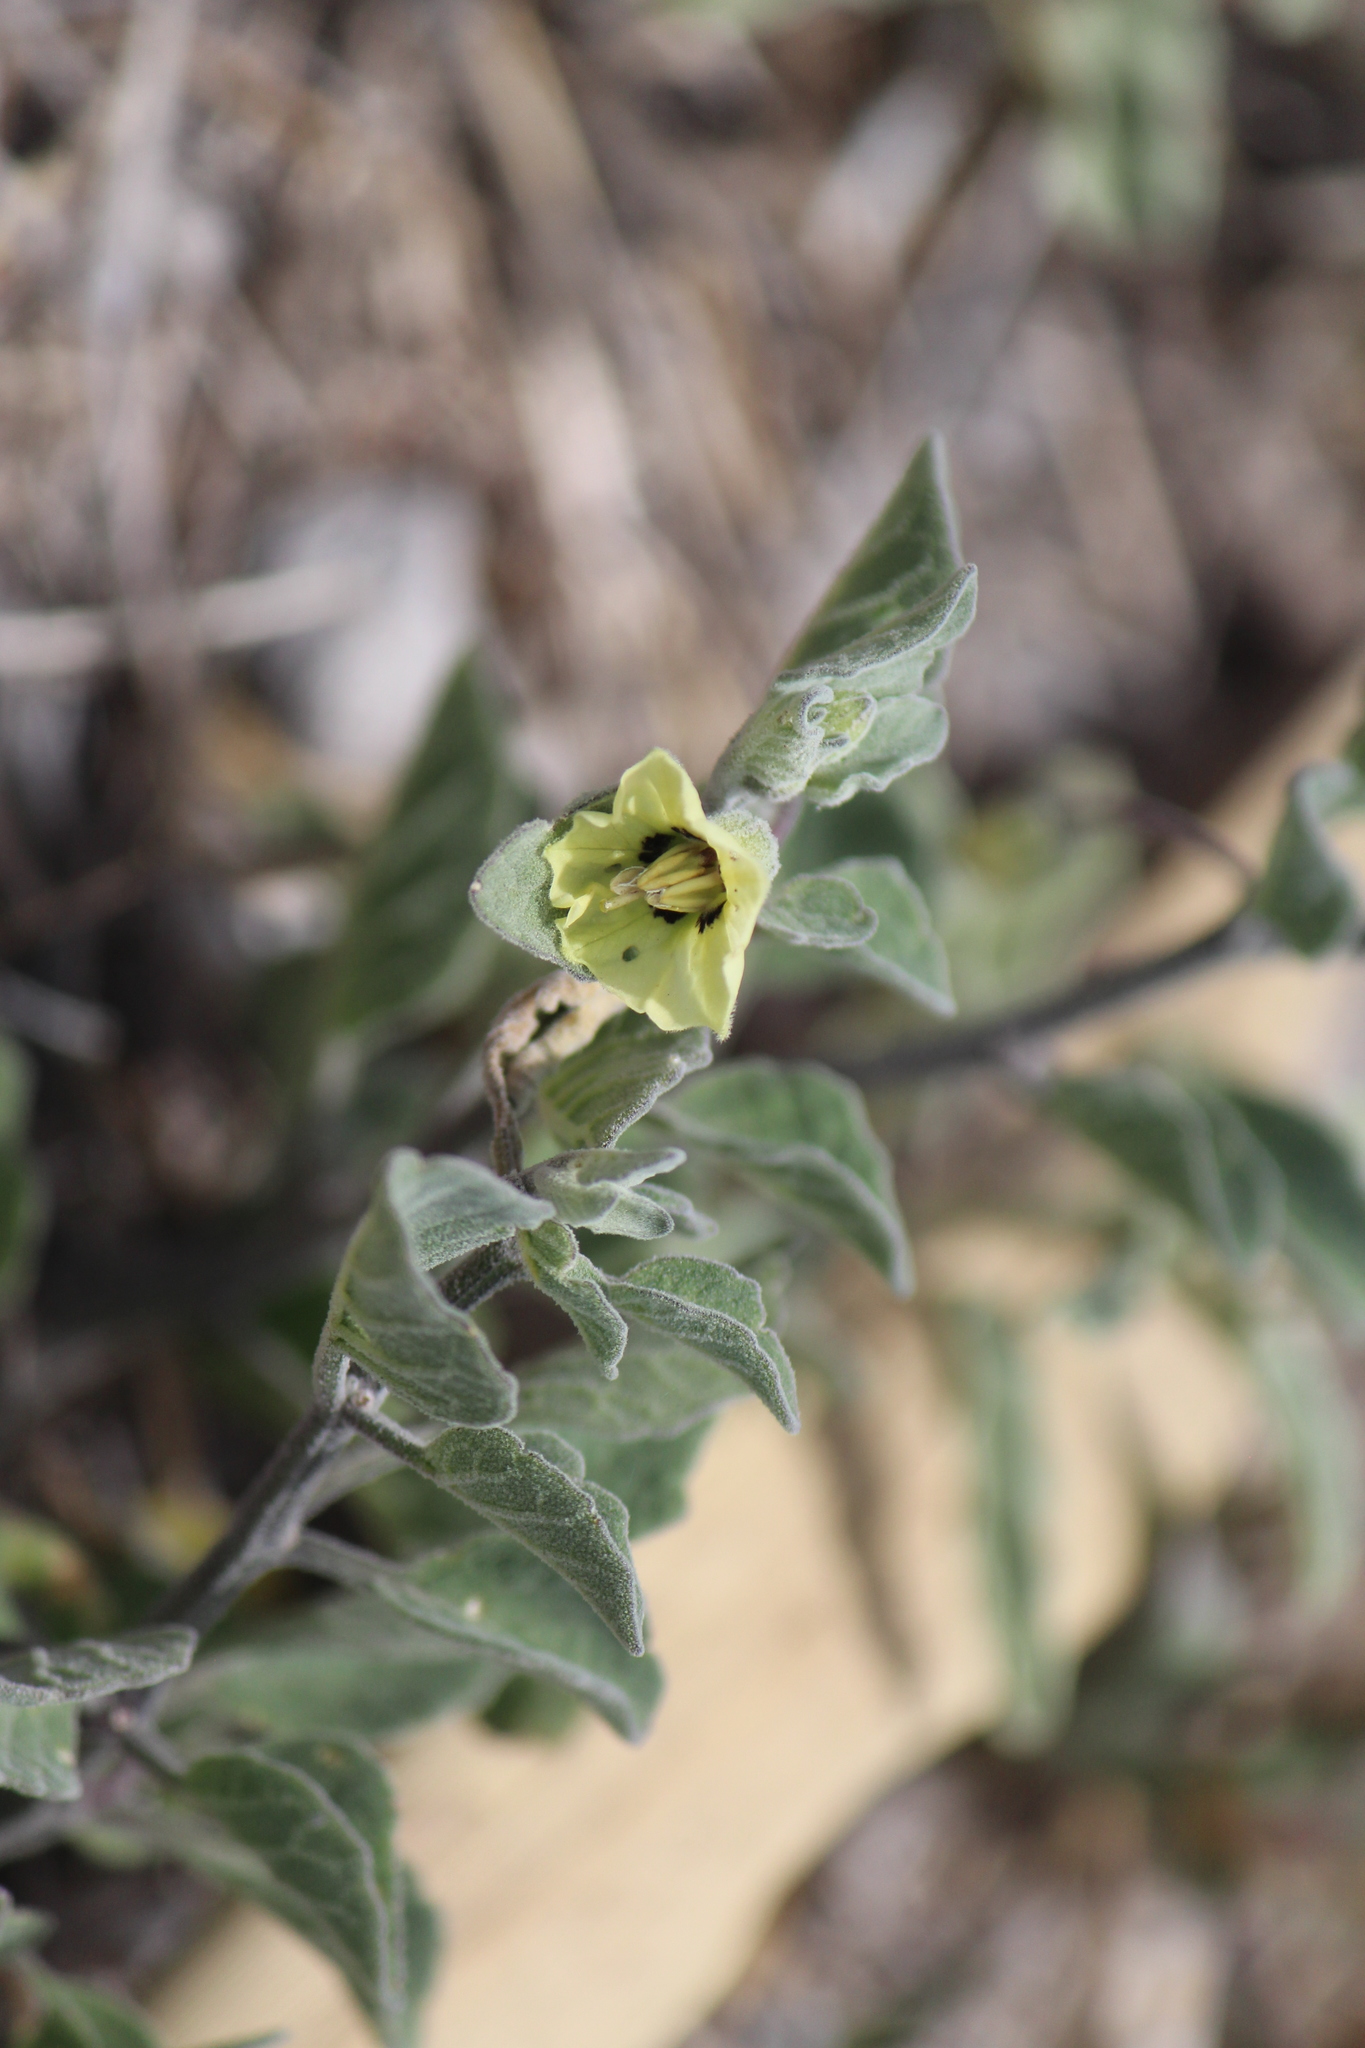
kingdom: Plantae
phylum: Tracheophyta
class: Magnoliopsida
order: Solanales
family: Solanaceae
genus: Physalis
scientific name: Physalis cinerascens
